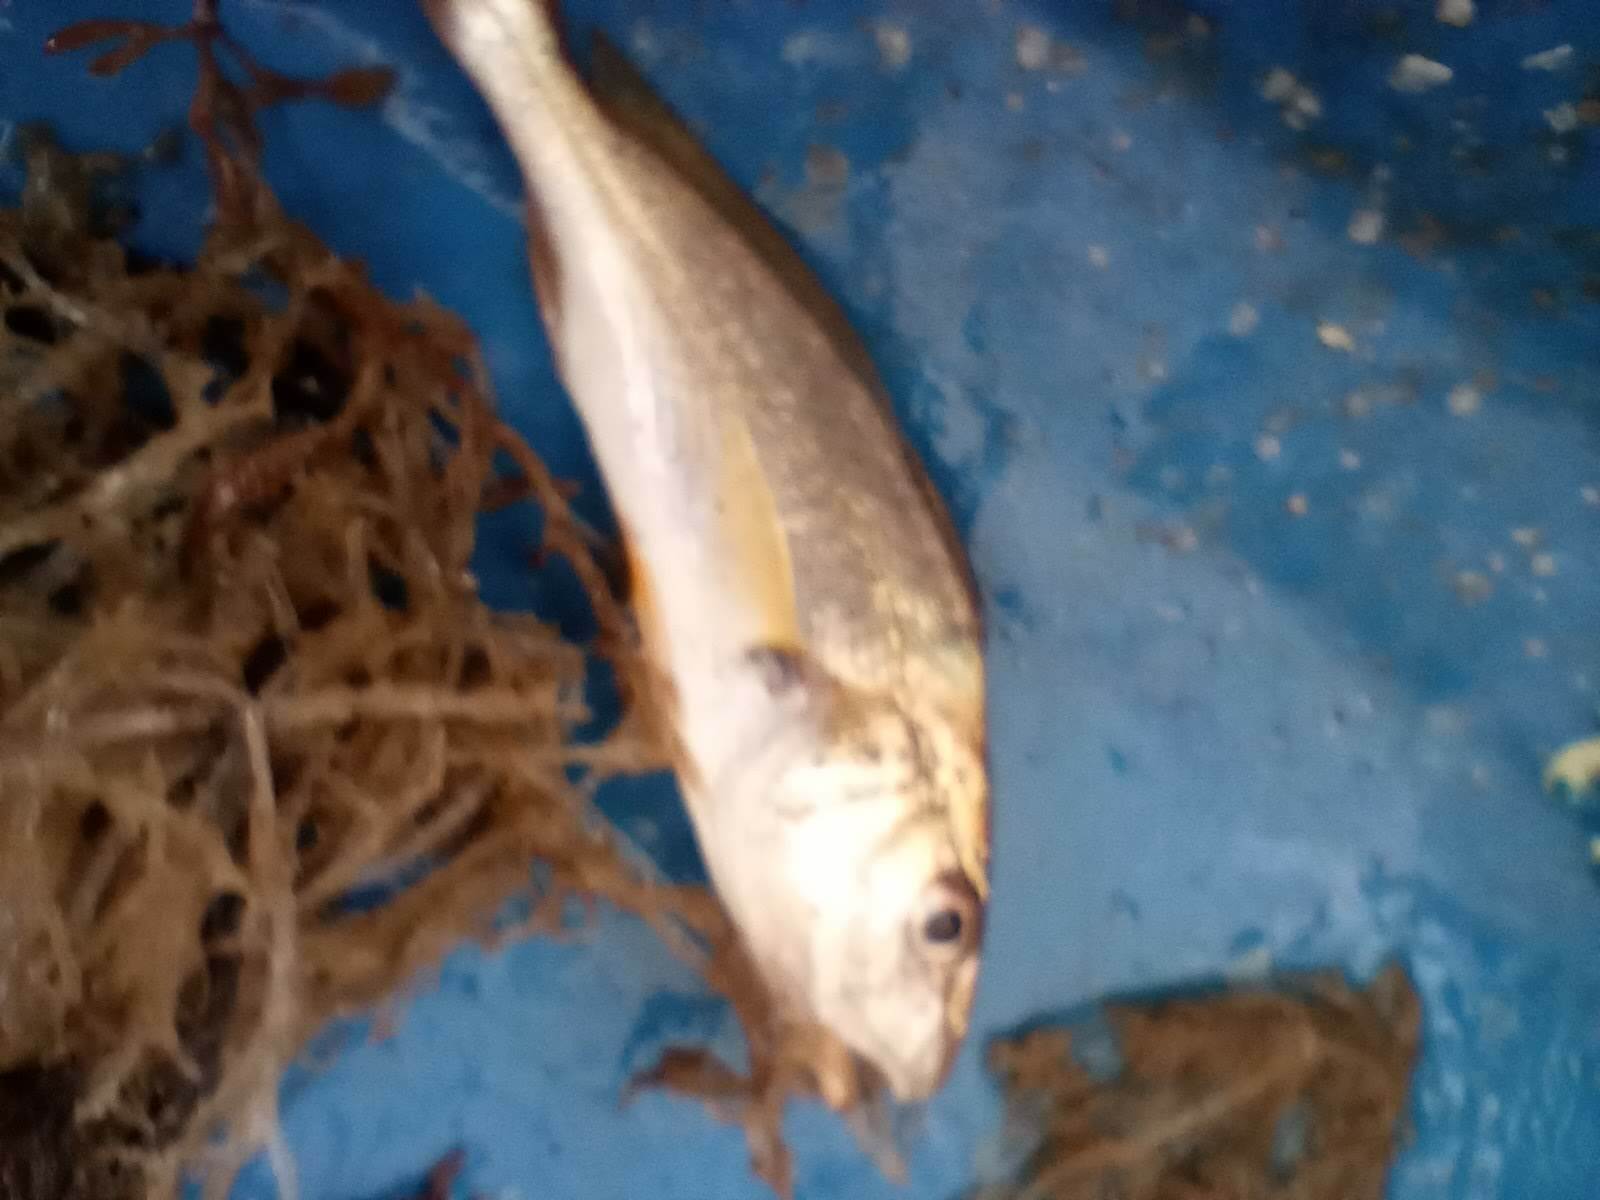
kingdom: Animalia
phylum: Chordata
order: Perciformes
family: Sciaenidae
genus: Micropogonias
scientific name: Micropogonias undulatus
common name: Atlantic croaker
